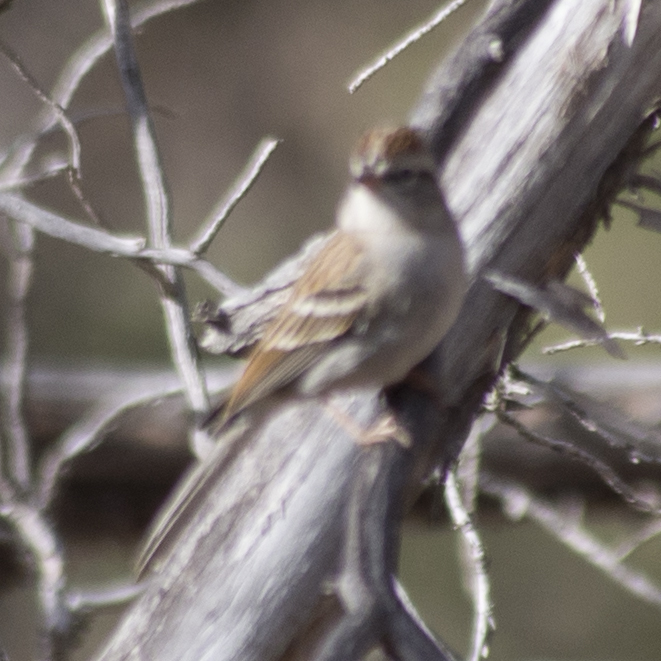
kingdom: Animalia
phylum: Chordata
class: Aves
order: Passeriformes
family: Passerellidae
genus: Spizella
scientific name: Spizella passerina
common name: Chipping sparrow
